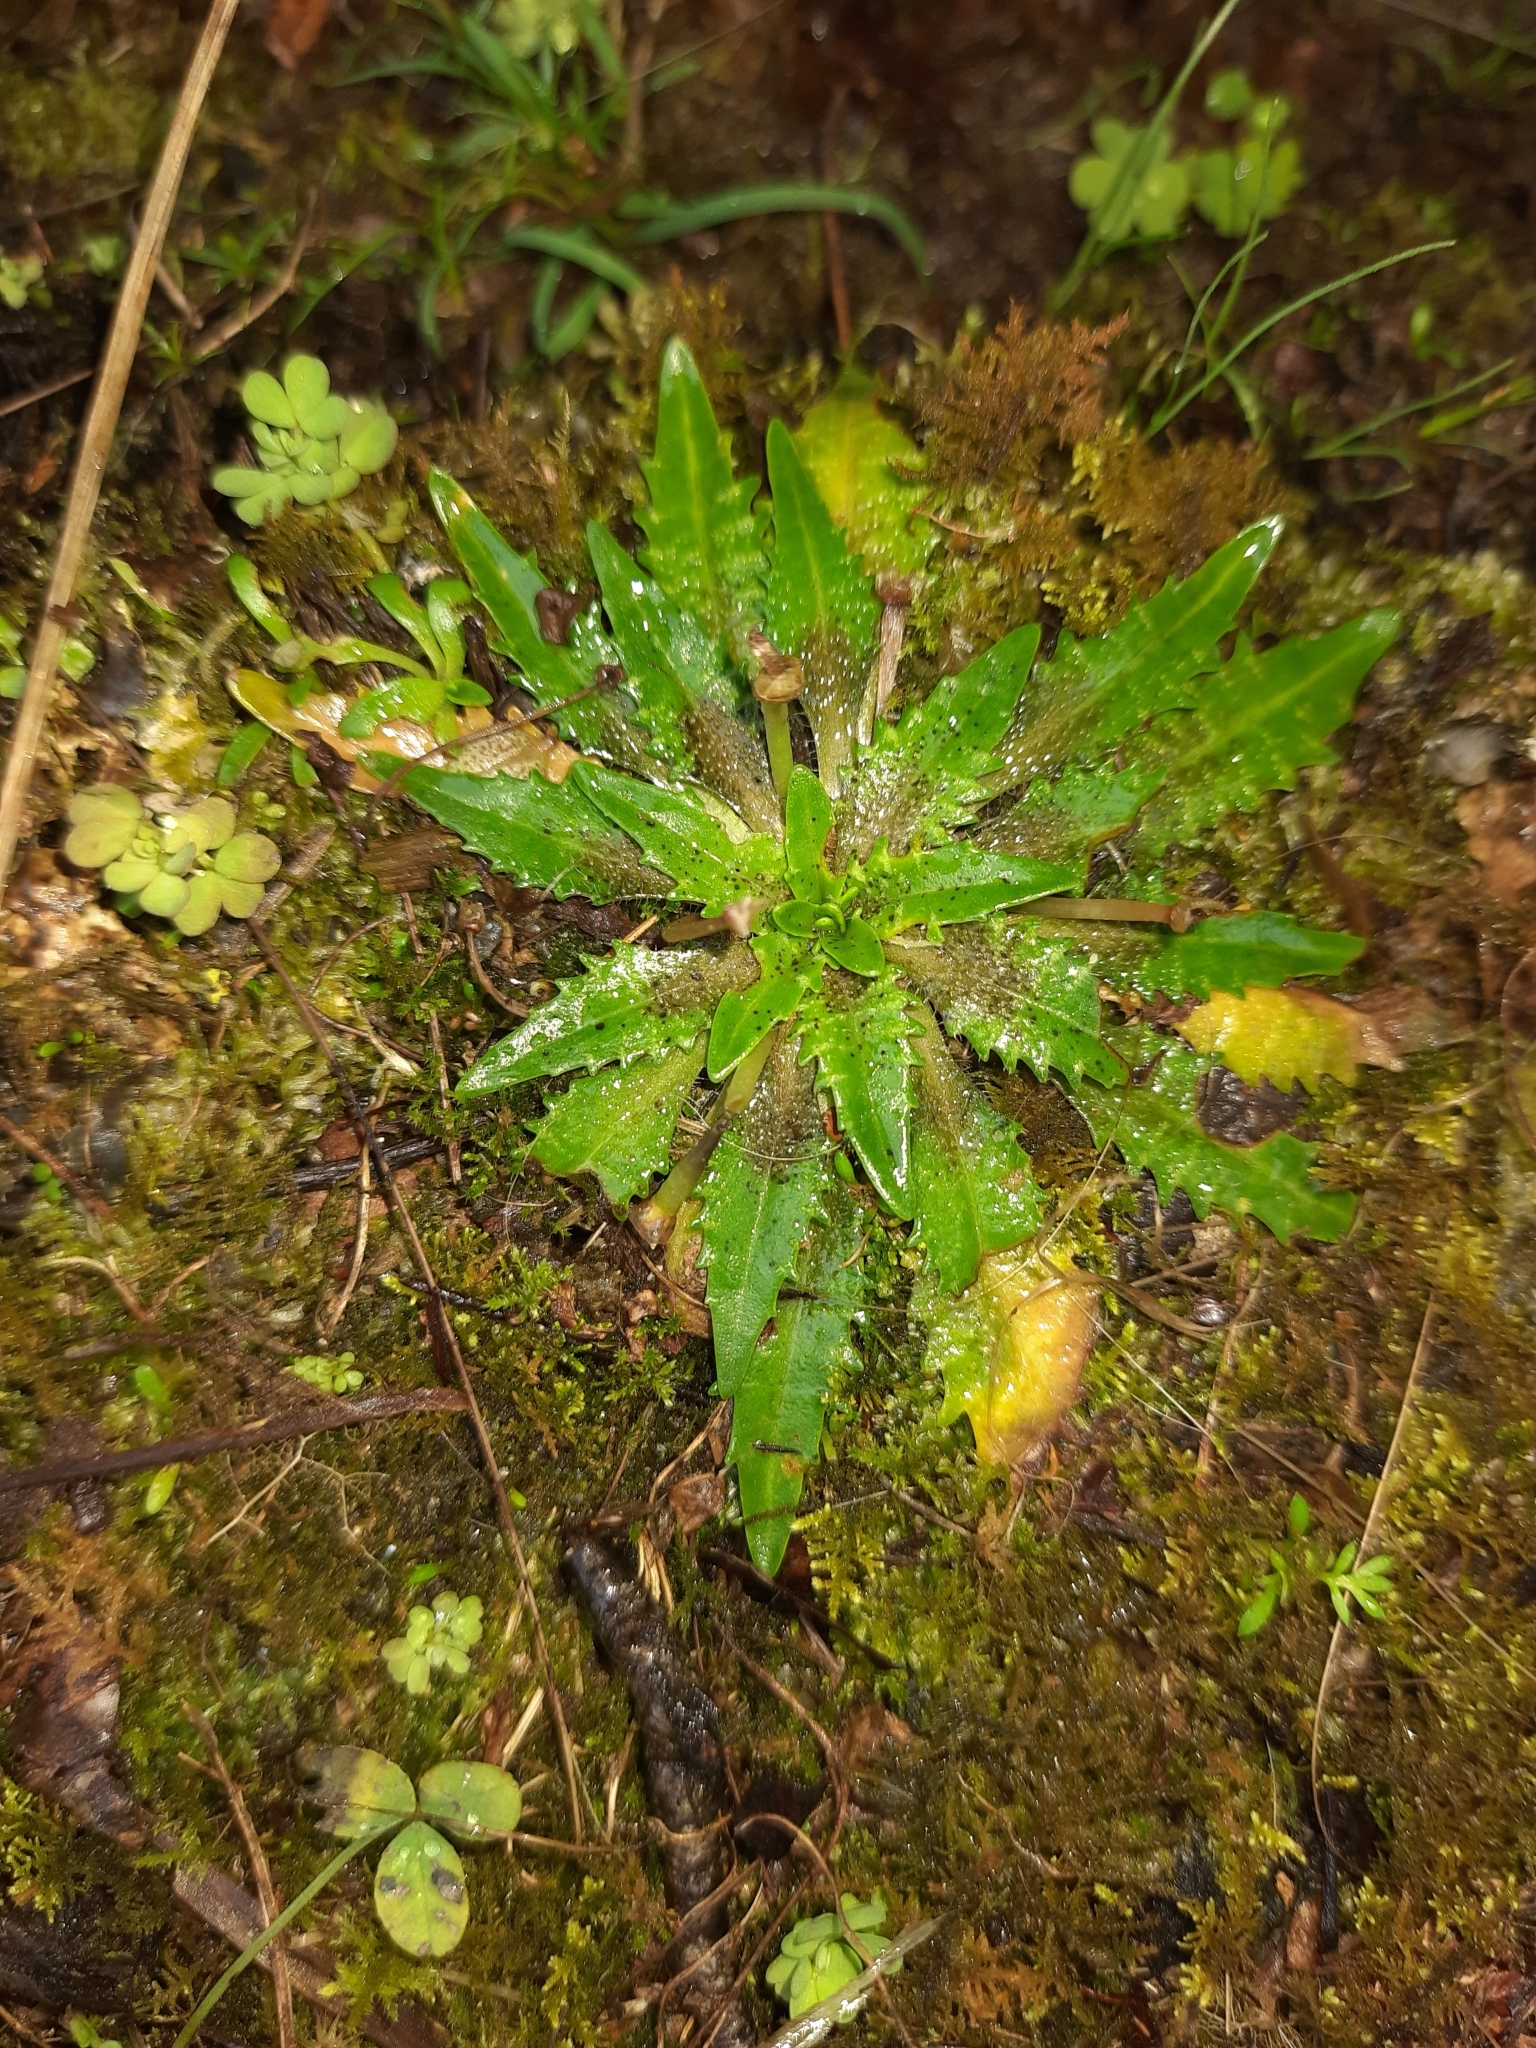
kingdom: Plantae
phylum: Tracheophyta
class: Magnoliopsida
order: Lamiales
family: Plantaginaceae
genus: Plantago
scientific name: Plantago triandra
